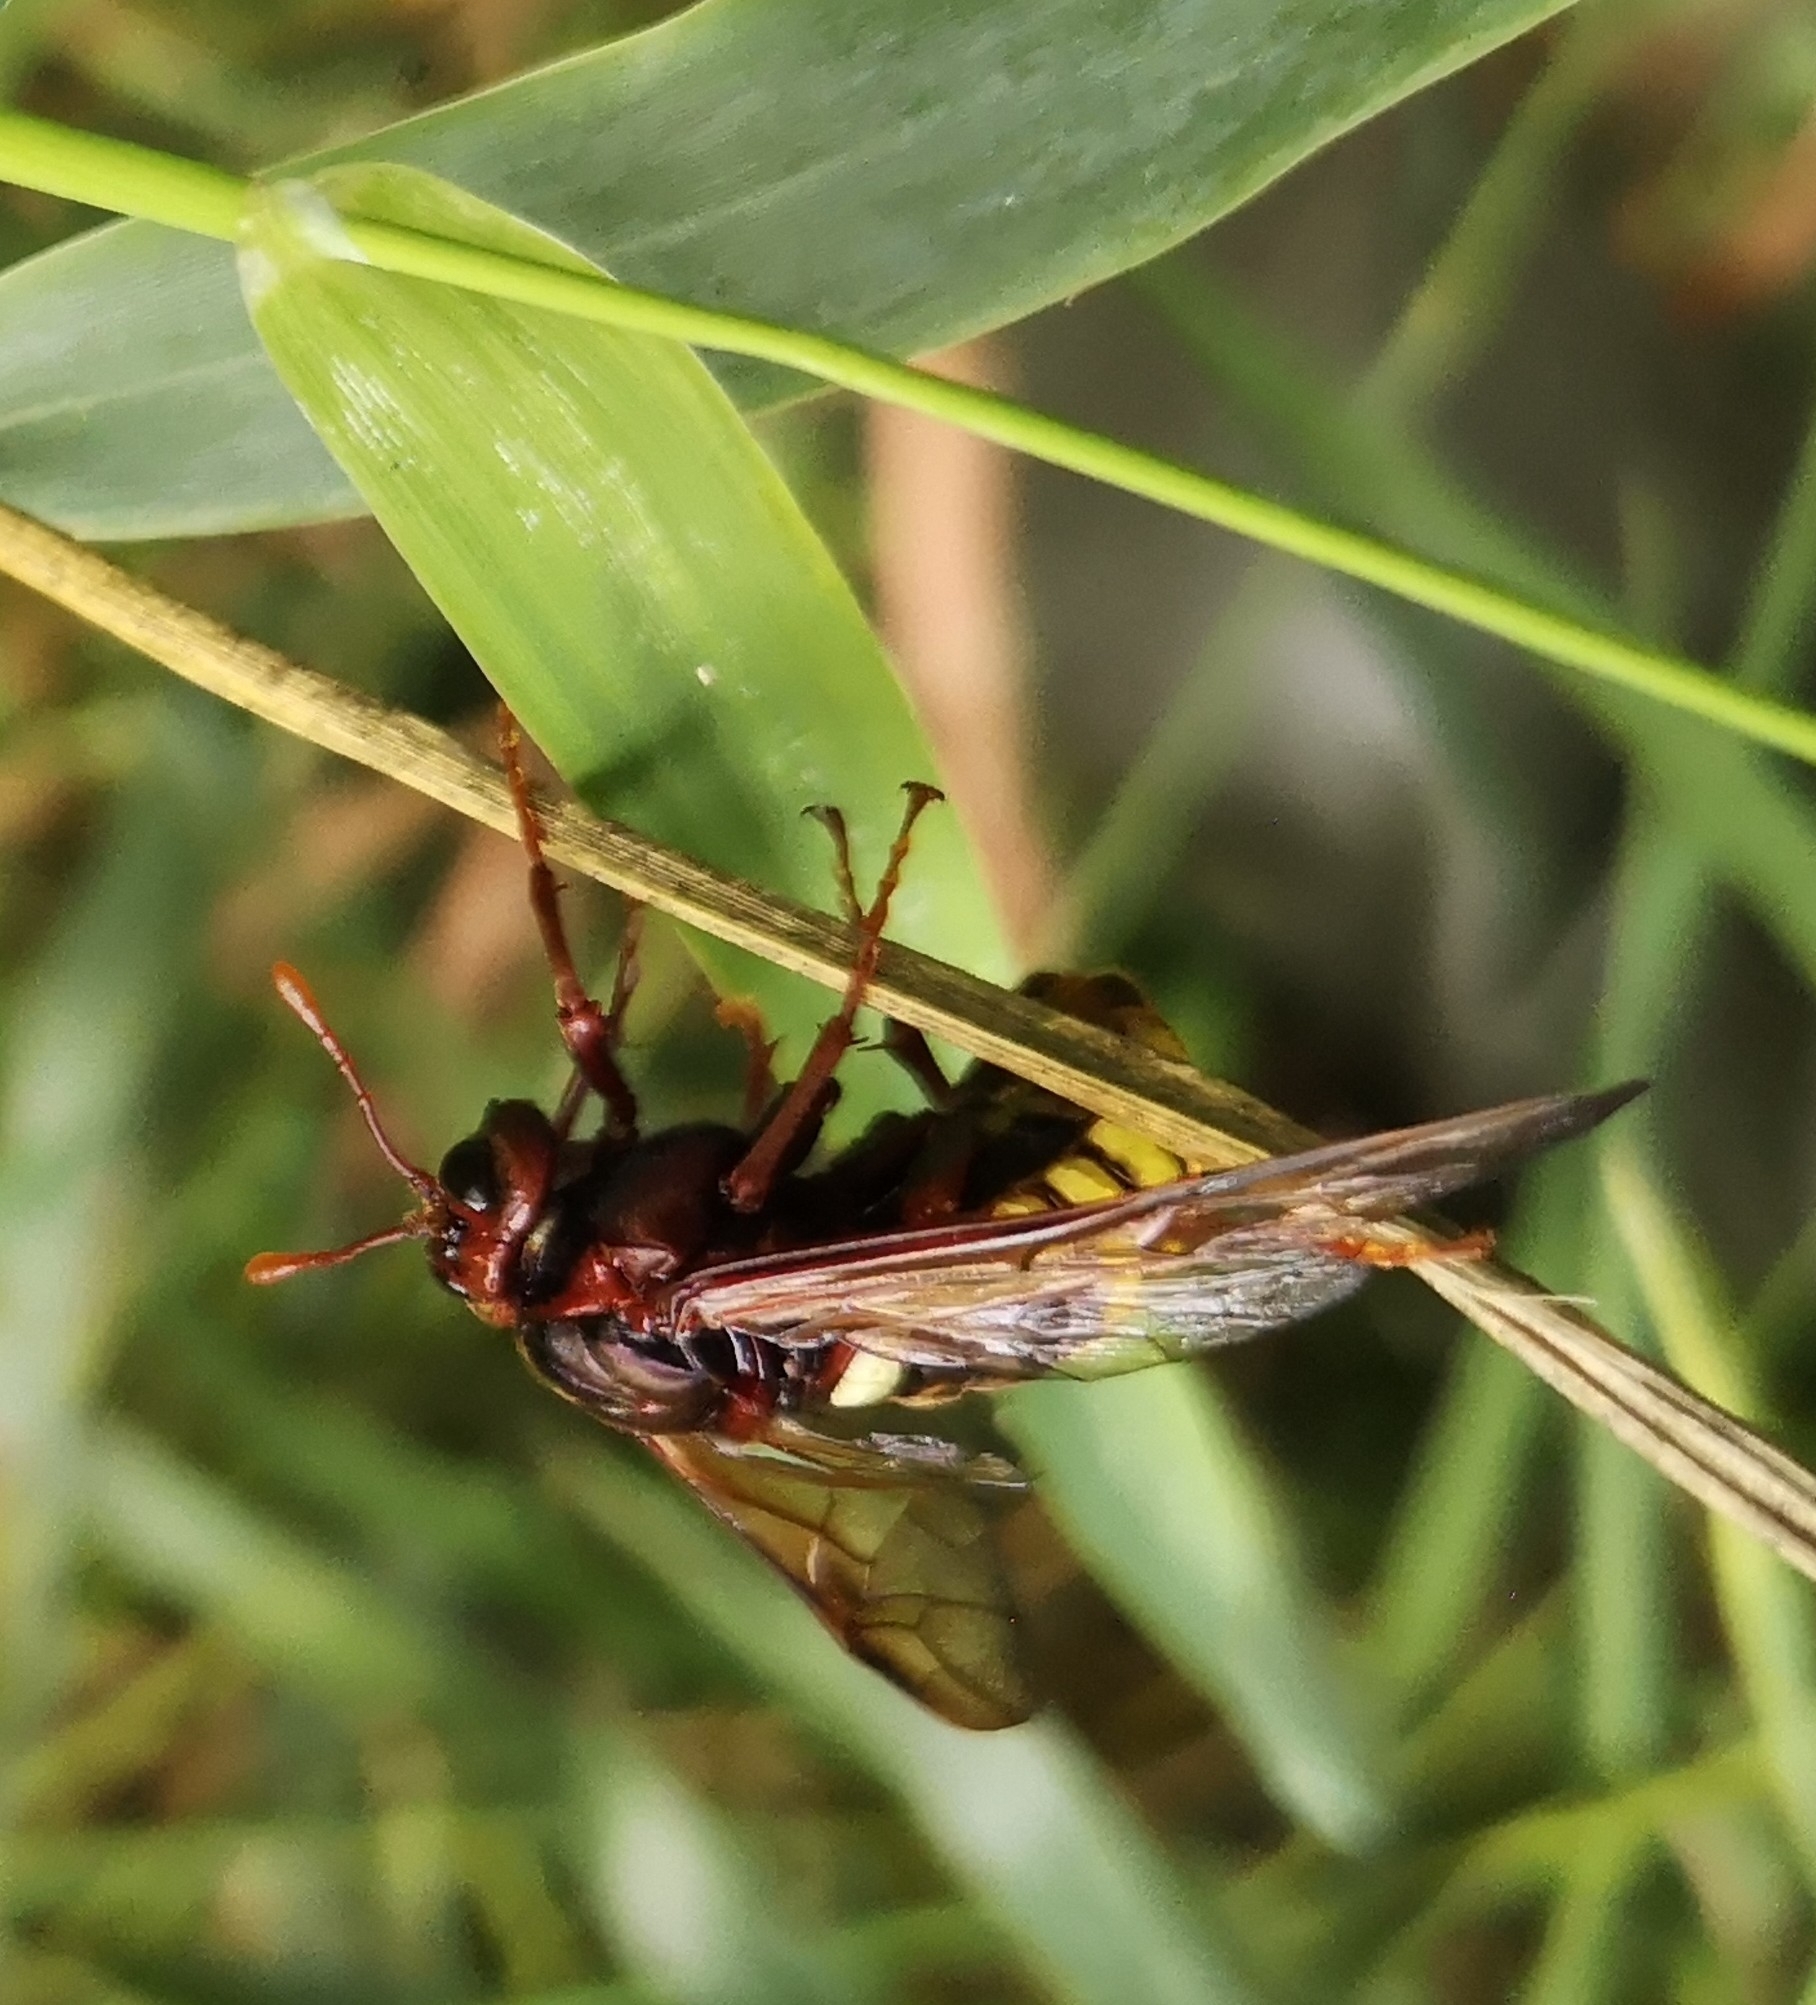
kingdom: Animalia
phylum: Arthropoda
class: Insecta
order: Hymenoptera
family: Cimbicidae
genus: Cimbex
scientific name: Cimbex connatus
